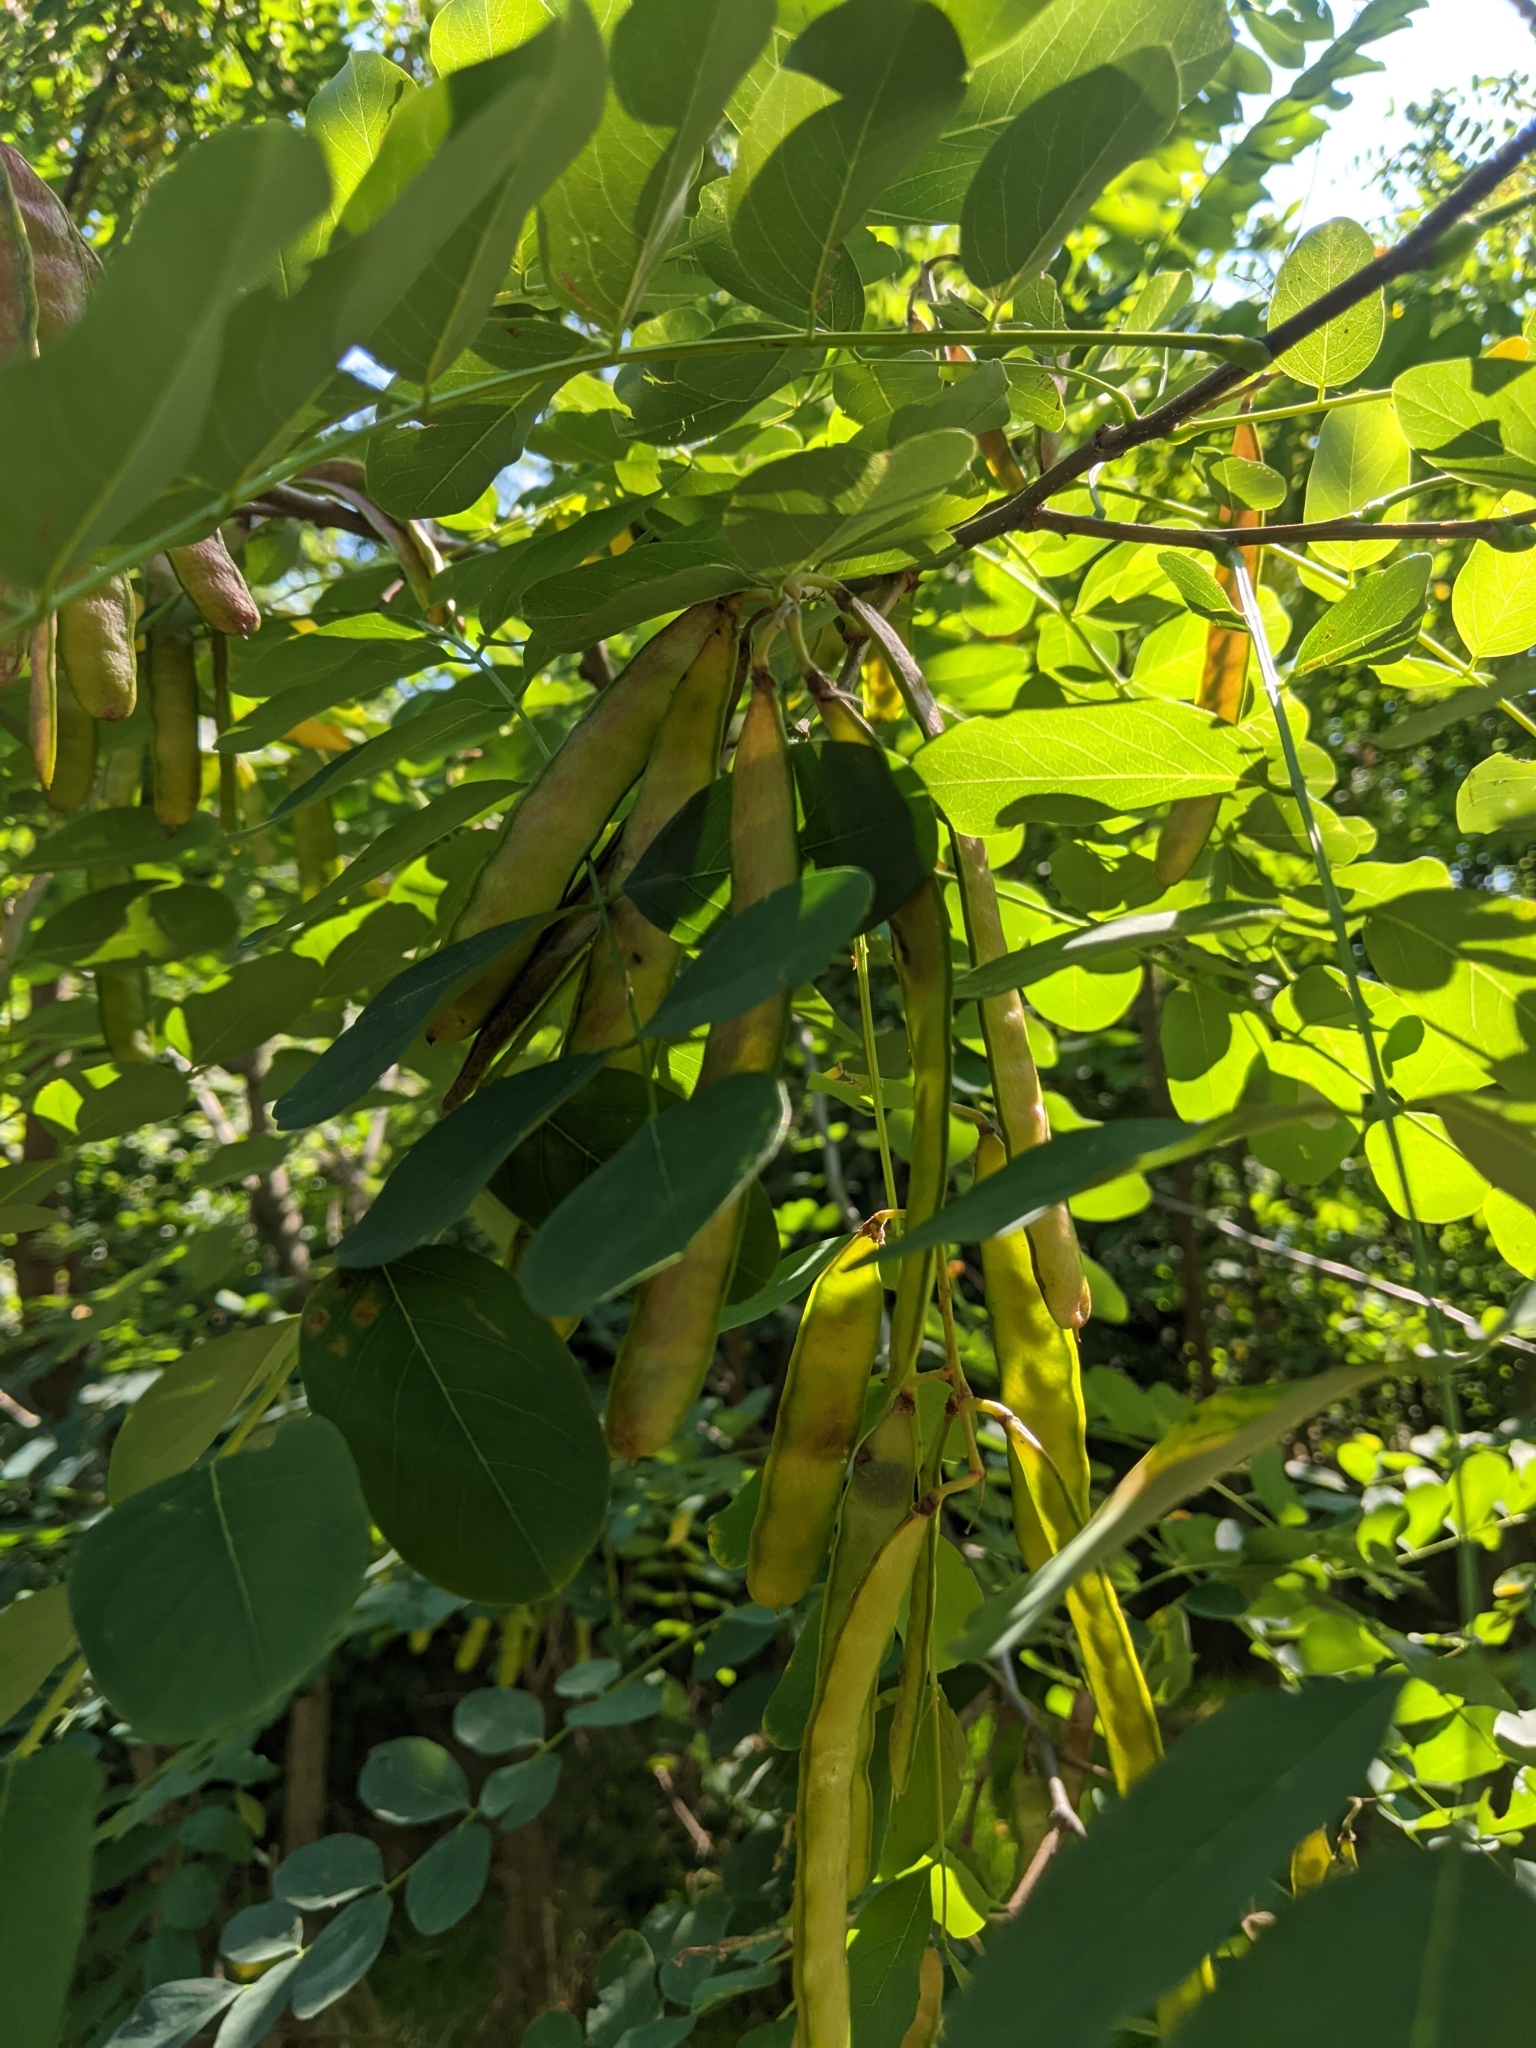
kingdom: Plantae
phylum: Tracheophyta
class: Magnoliopsida
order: Fabales
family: Fabaceae
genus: Robinia
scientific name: Robinia pseudoacacia
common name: Black locust
